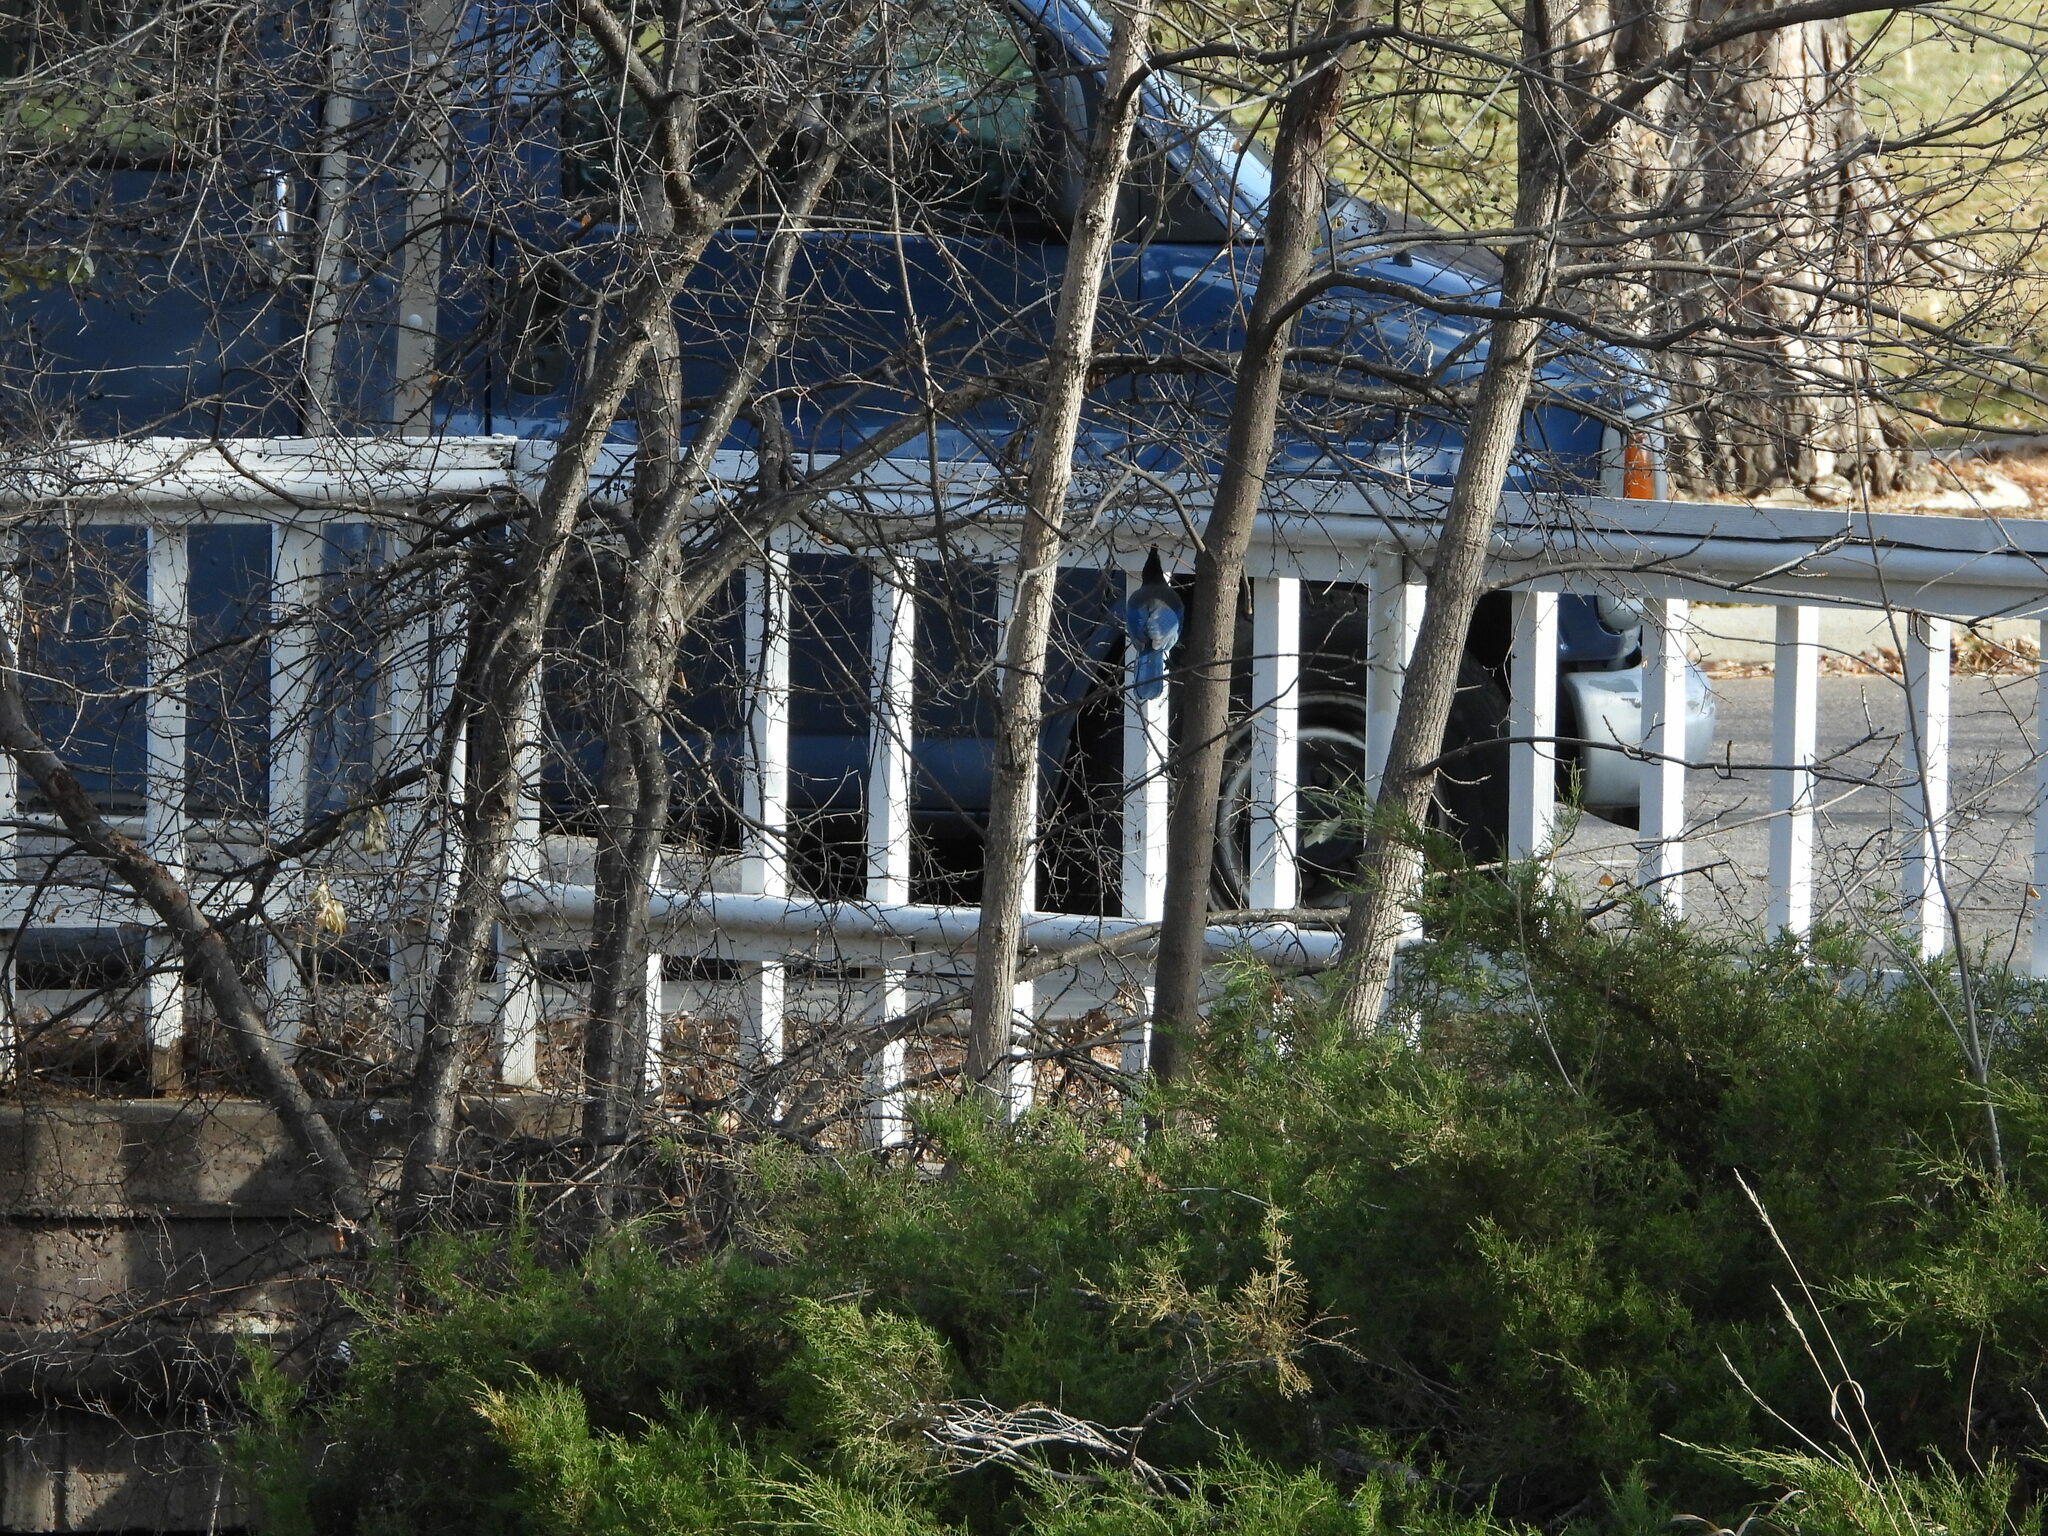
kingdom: Animalia
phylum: Chordata
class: Aves
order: Passeriformes
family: Corvidae
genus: Cyanocitta
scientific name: Cyanocitta stelleri
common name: Steller's jay
